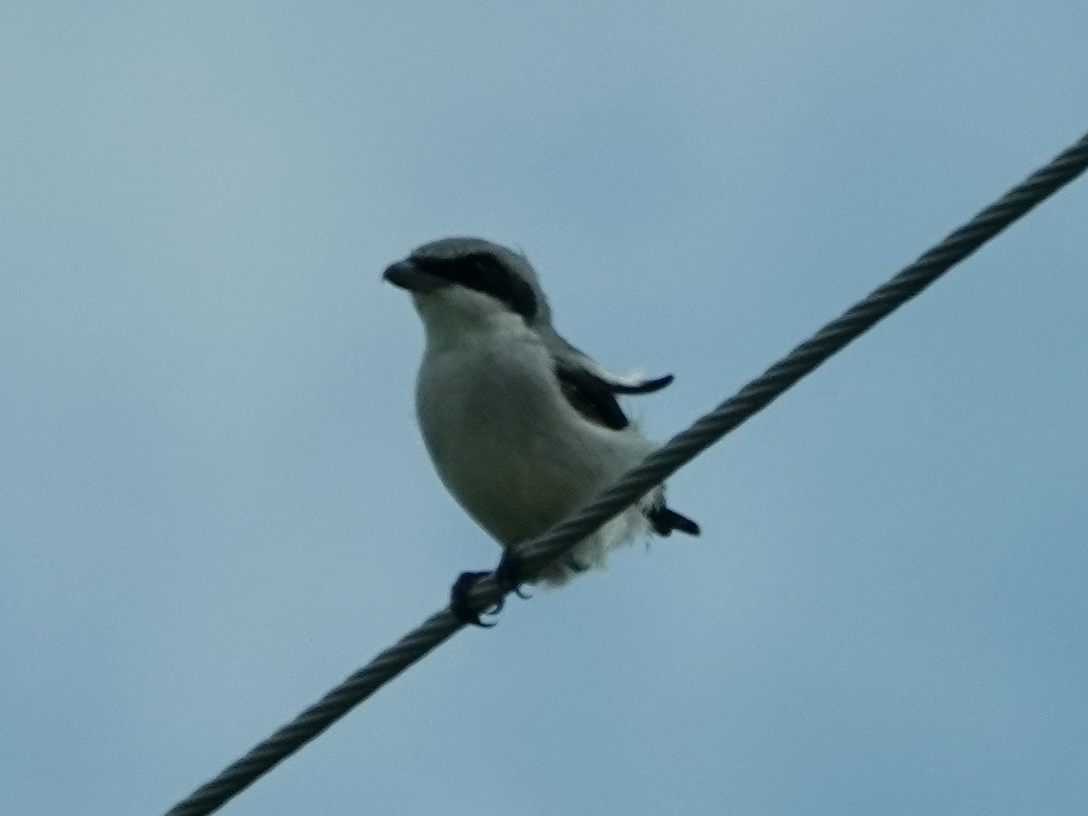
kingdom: Animalia
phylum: Chordata
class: Aves
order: Passeriformes
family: Laniidae
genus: Lanius
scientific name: Lanius ludovicianus
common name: Loggerhead shrike
